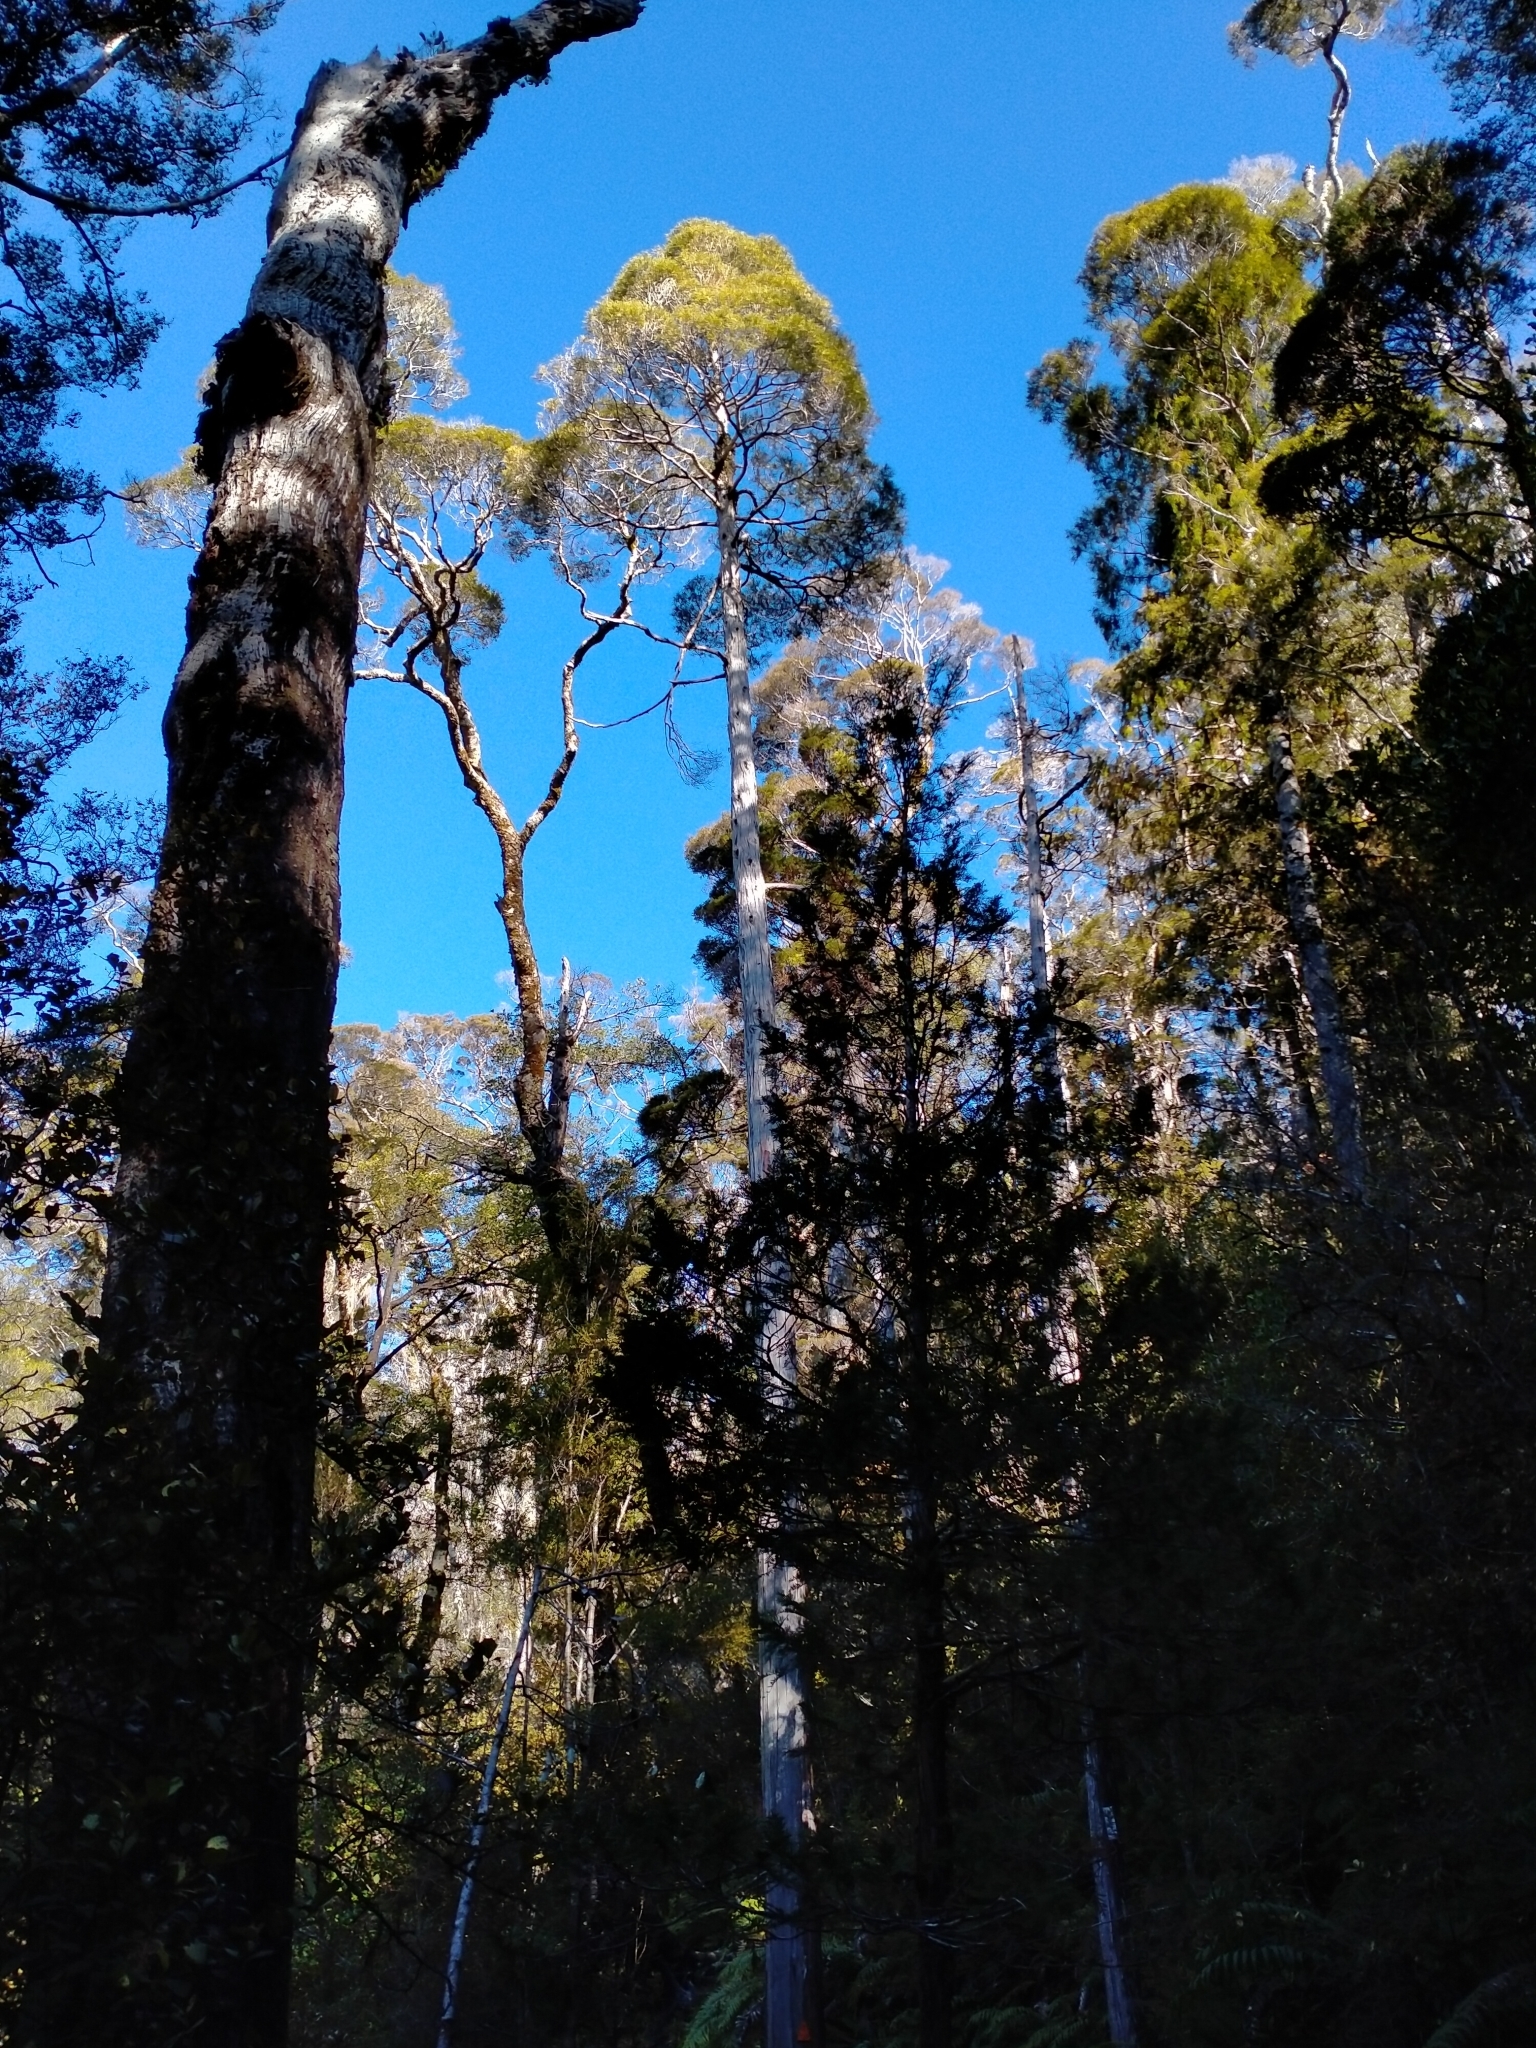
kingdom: Plantae
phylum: Tracheophyta
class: Pinopsida
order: Pinales
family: Cupressaceae
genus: Libocedrus
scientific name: Libocedrus bidwillii
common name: Cedar
